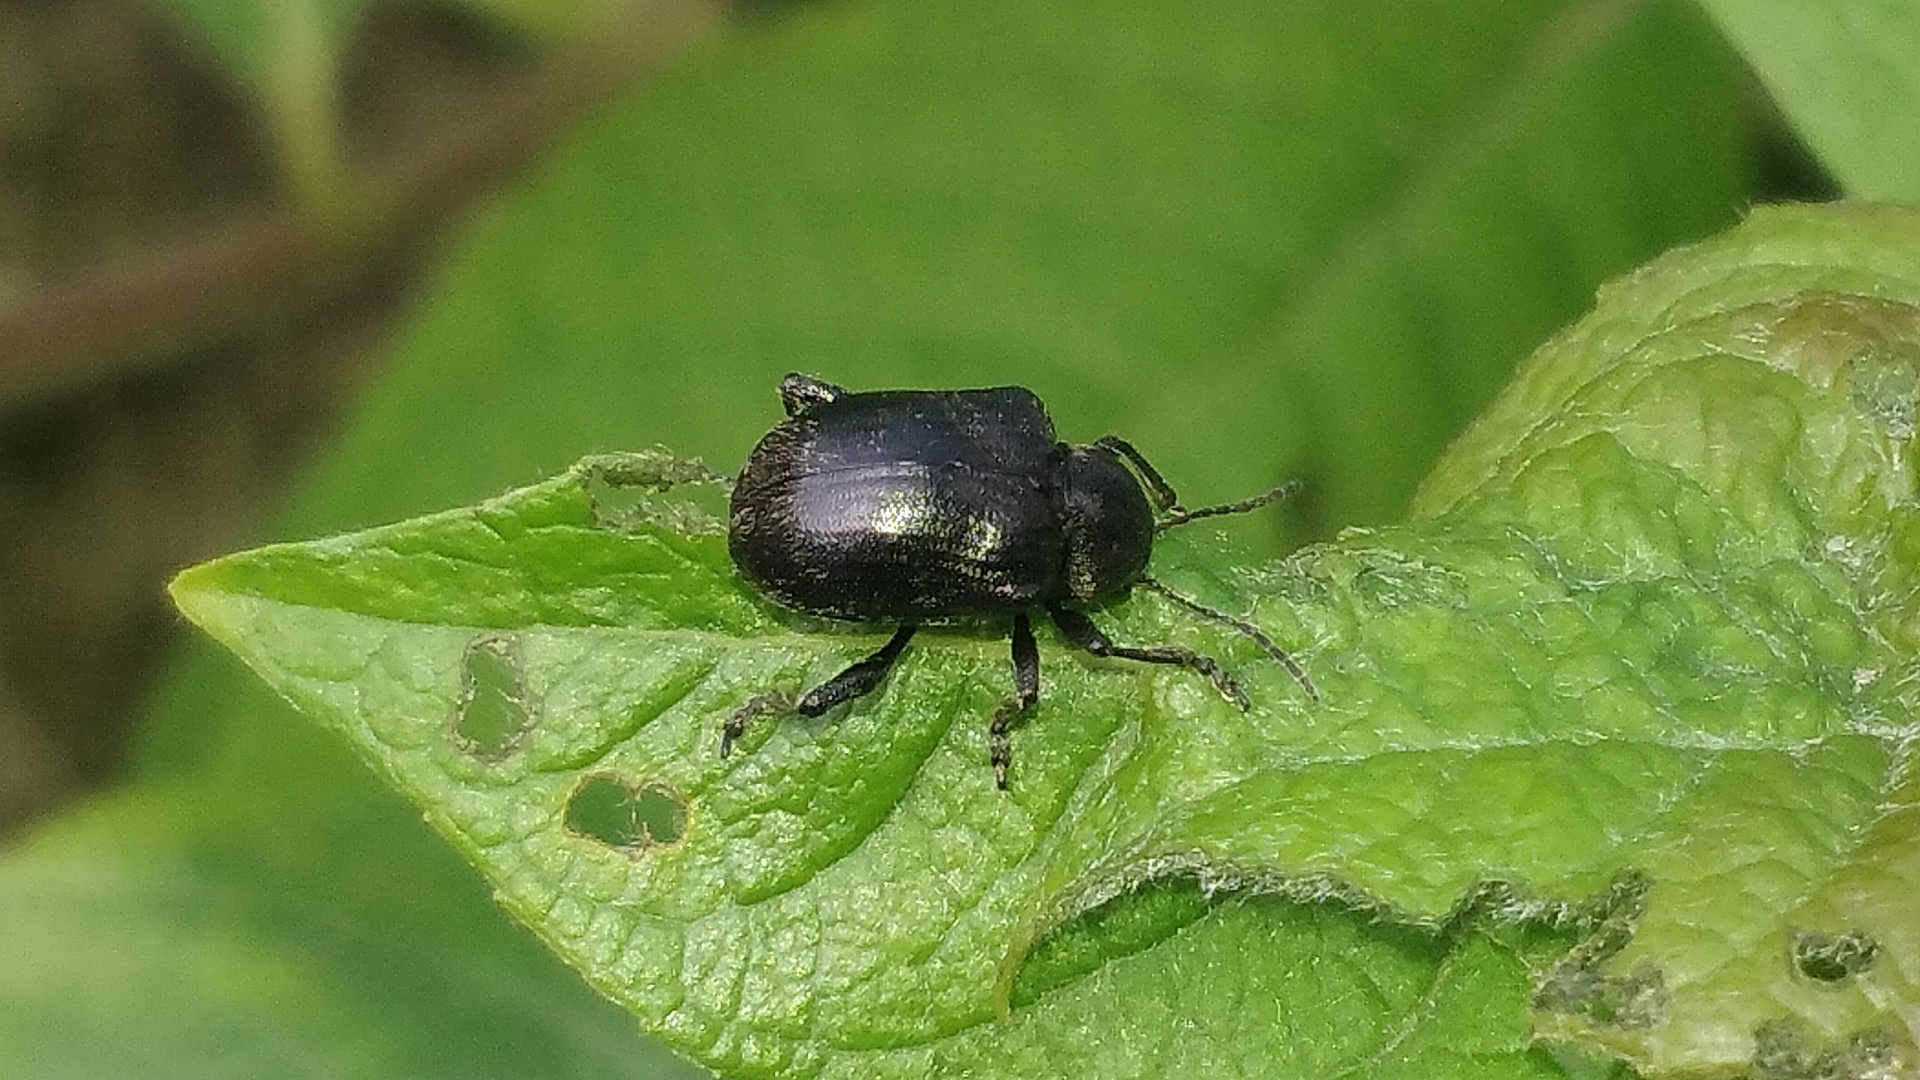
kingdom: Animalia
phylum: Arthropoda
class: Insecta
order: Coleoptera
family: Chrysomelidae
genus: Bromius
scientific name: Bromius obscurus
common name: Western grape rootworm
